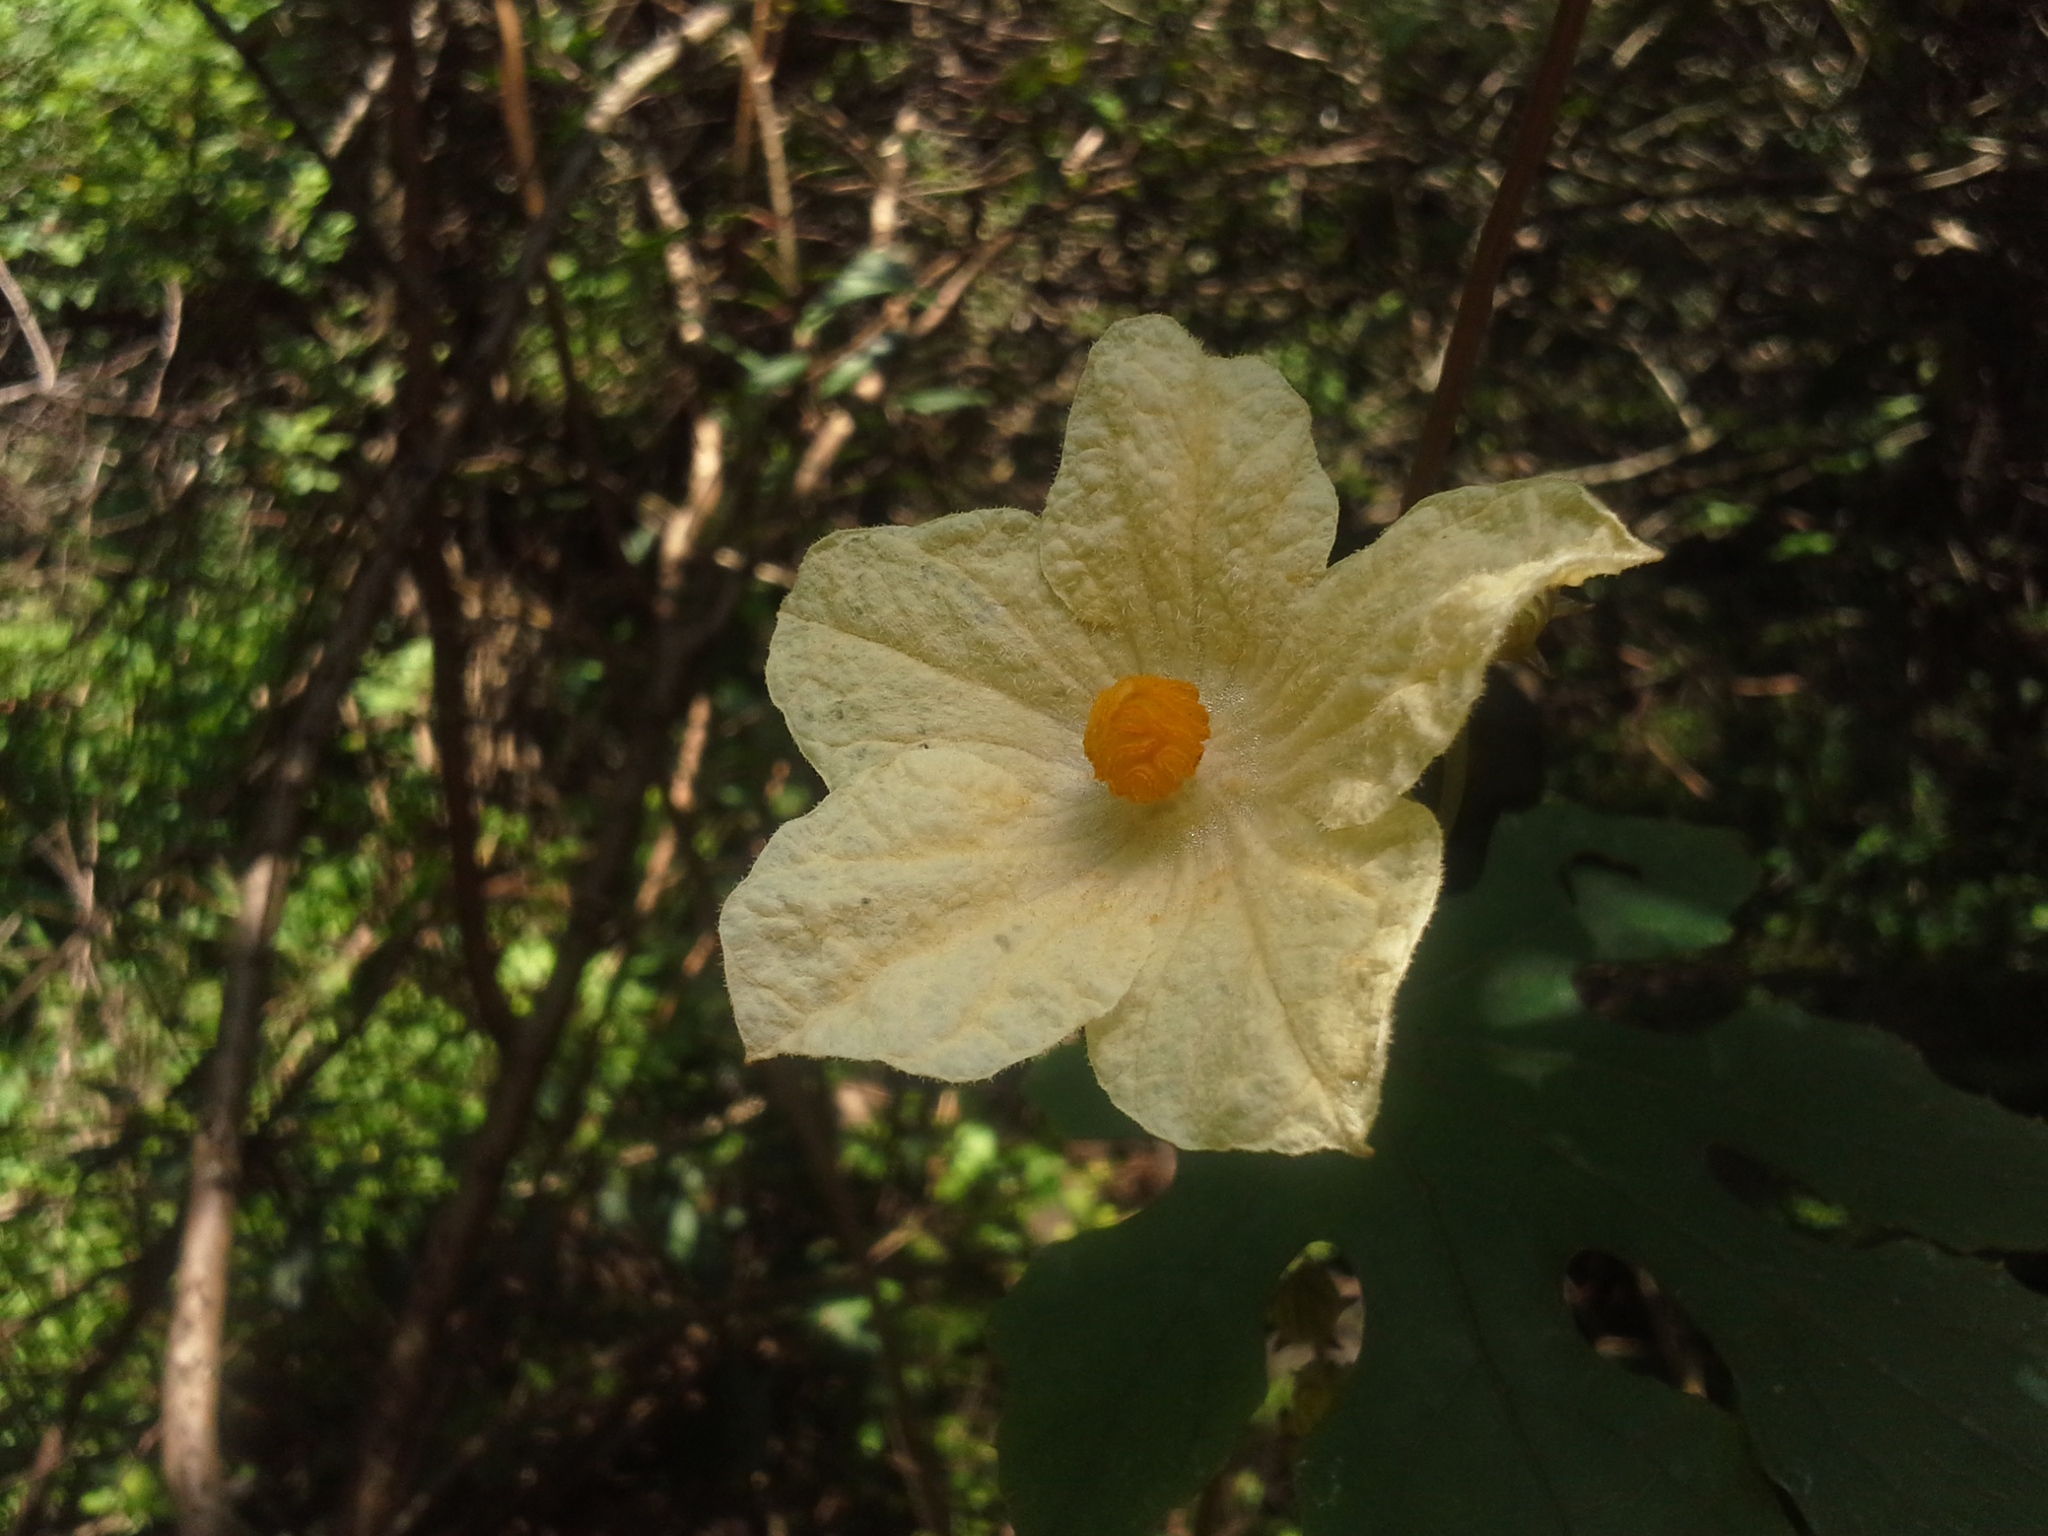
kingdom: Plantae
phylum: Tracheophyta
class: Magnoliopsida
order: Cucurbitales
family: Cucurbitaceae
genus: Coccinia
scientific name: Coccinia palmata
